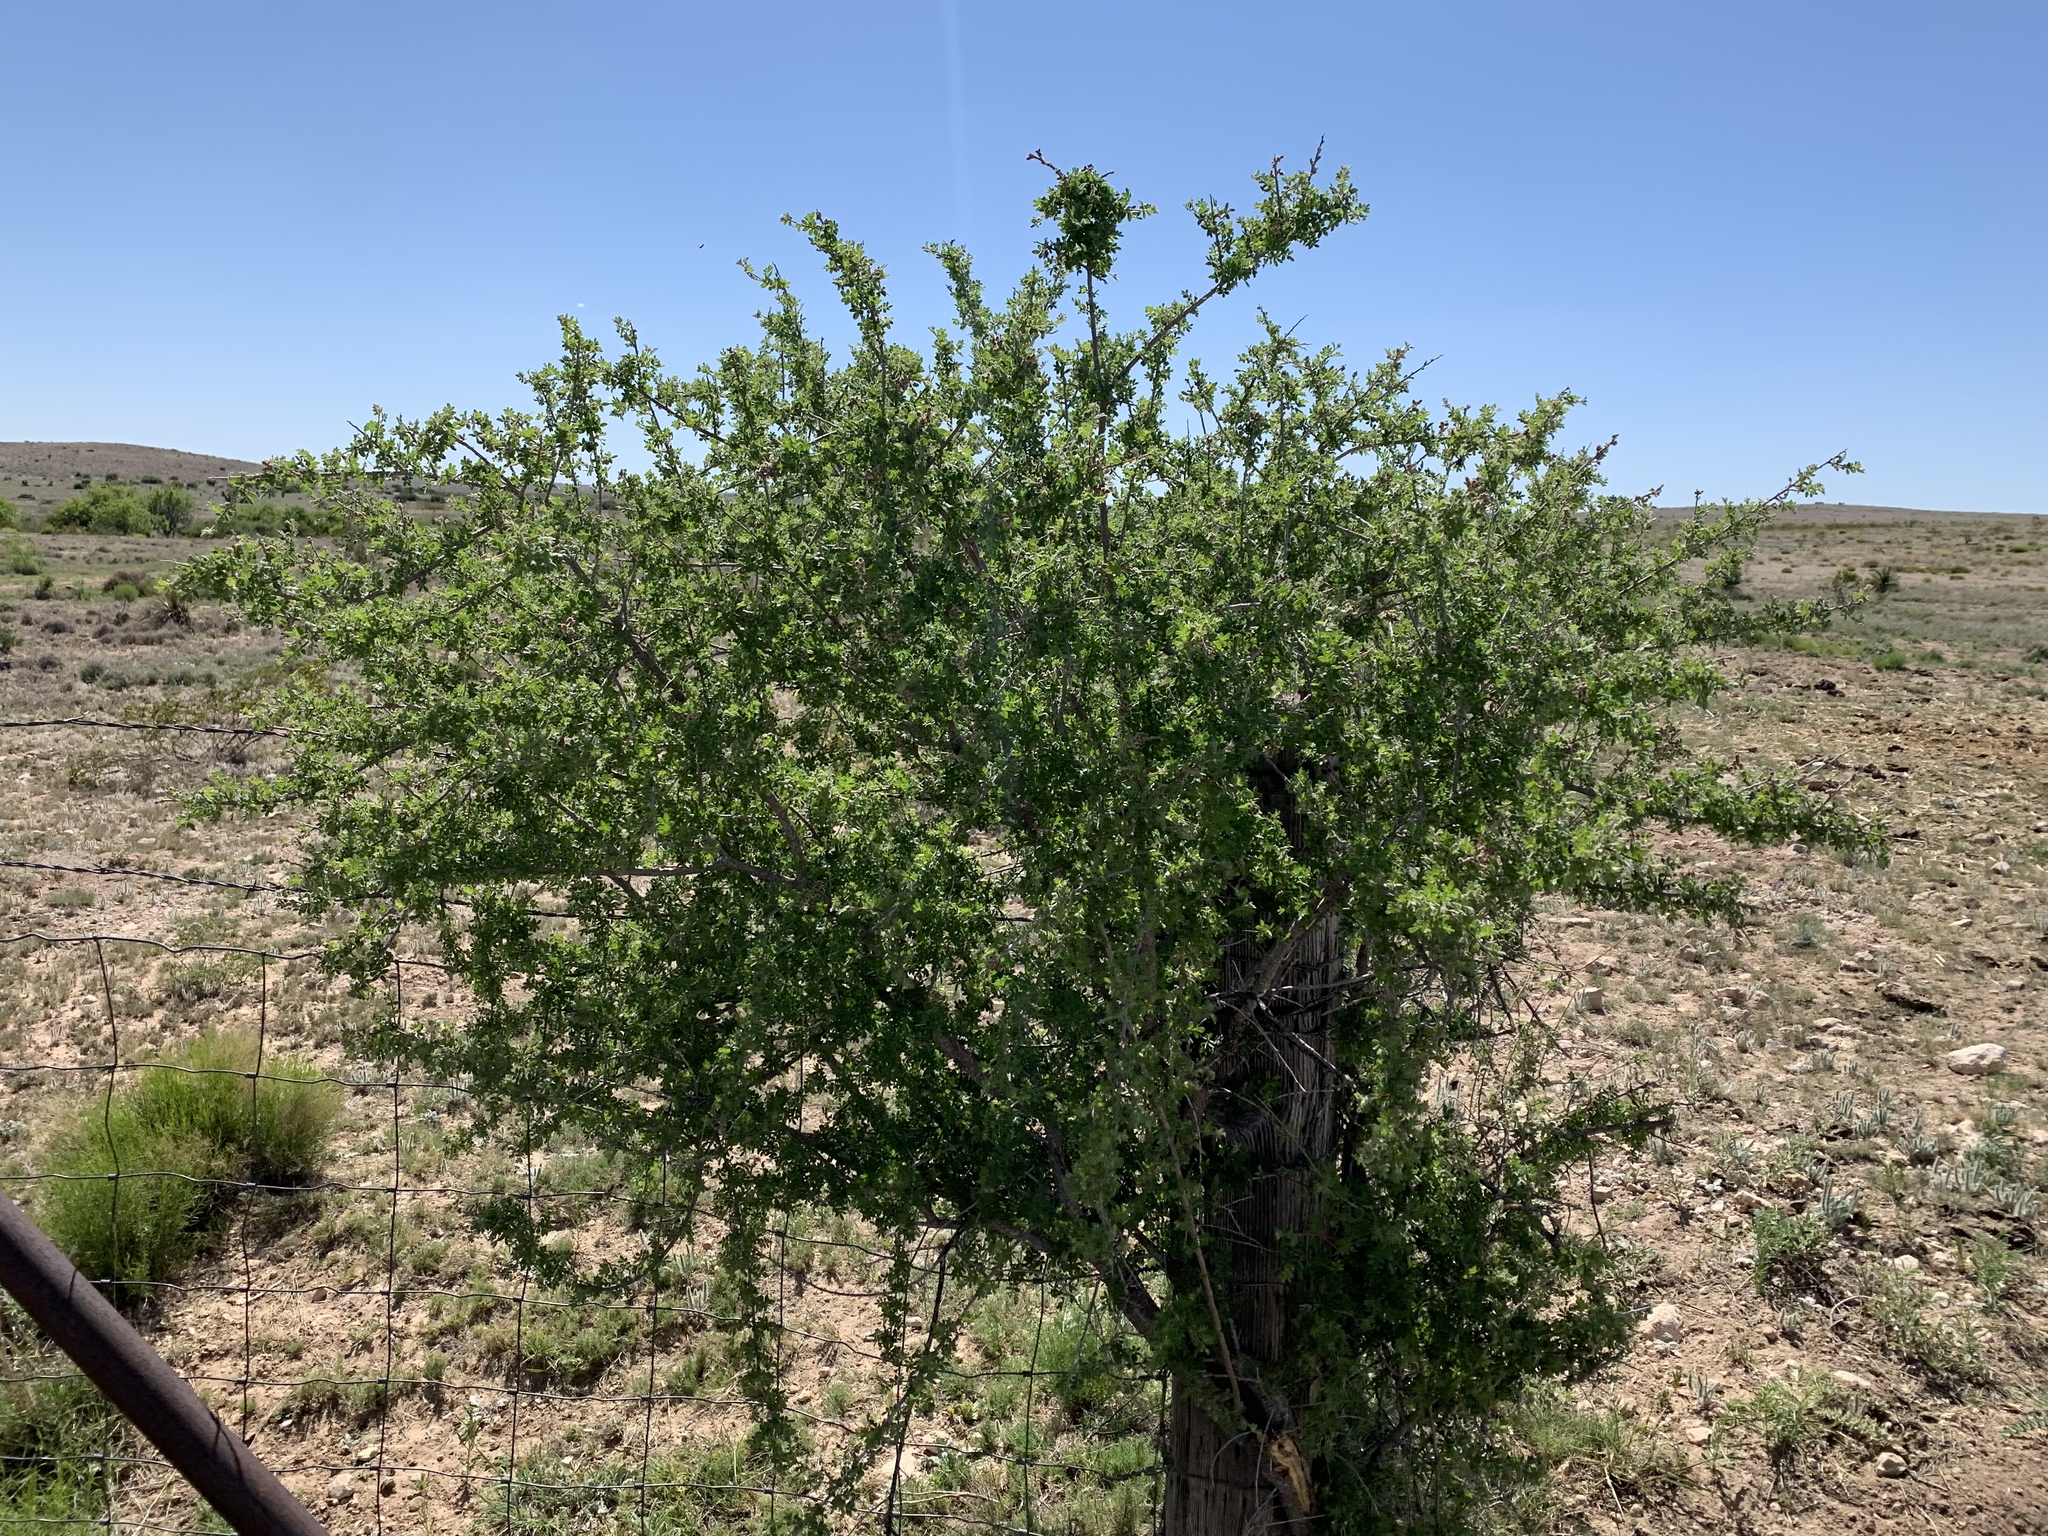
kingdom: Plantae
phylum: Tracheophyta
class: Magnoliopsida
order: Sapindales
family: Anacardiaceae
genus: Rhus
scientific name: Rhus microphylla
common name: Desert sumac
